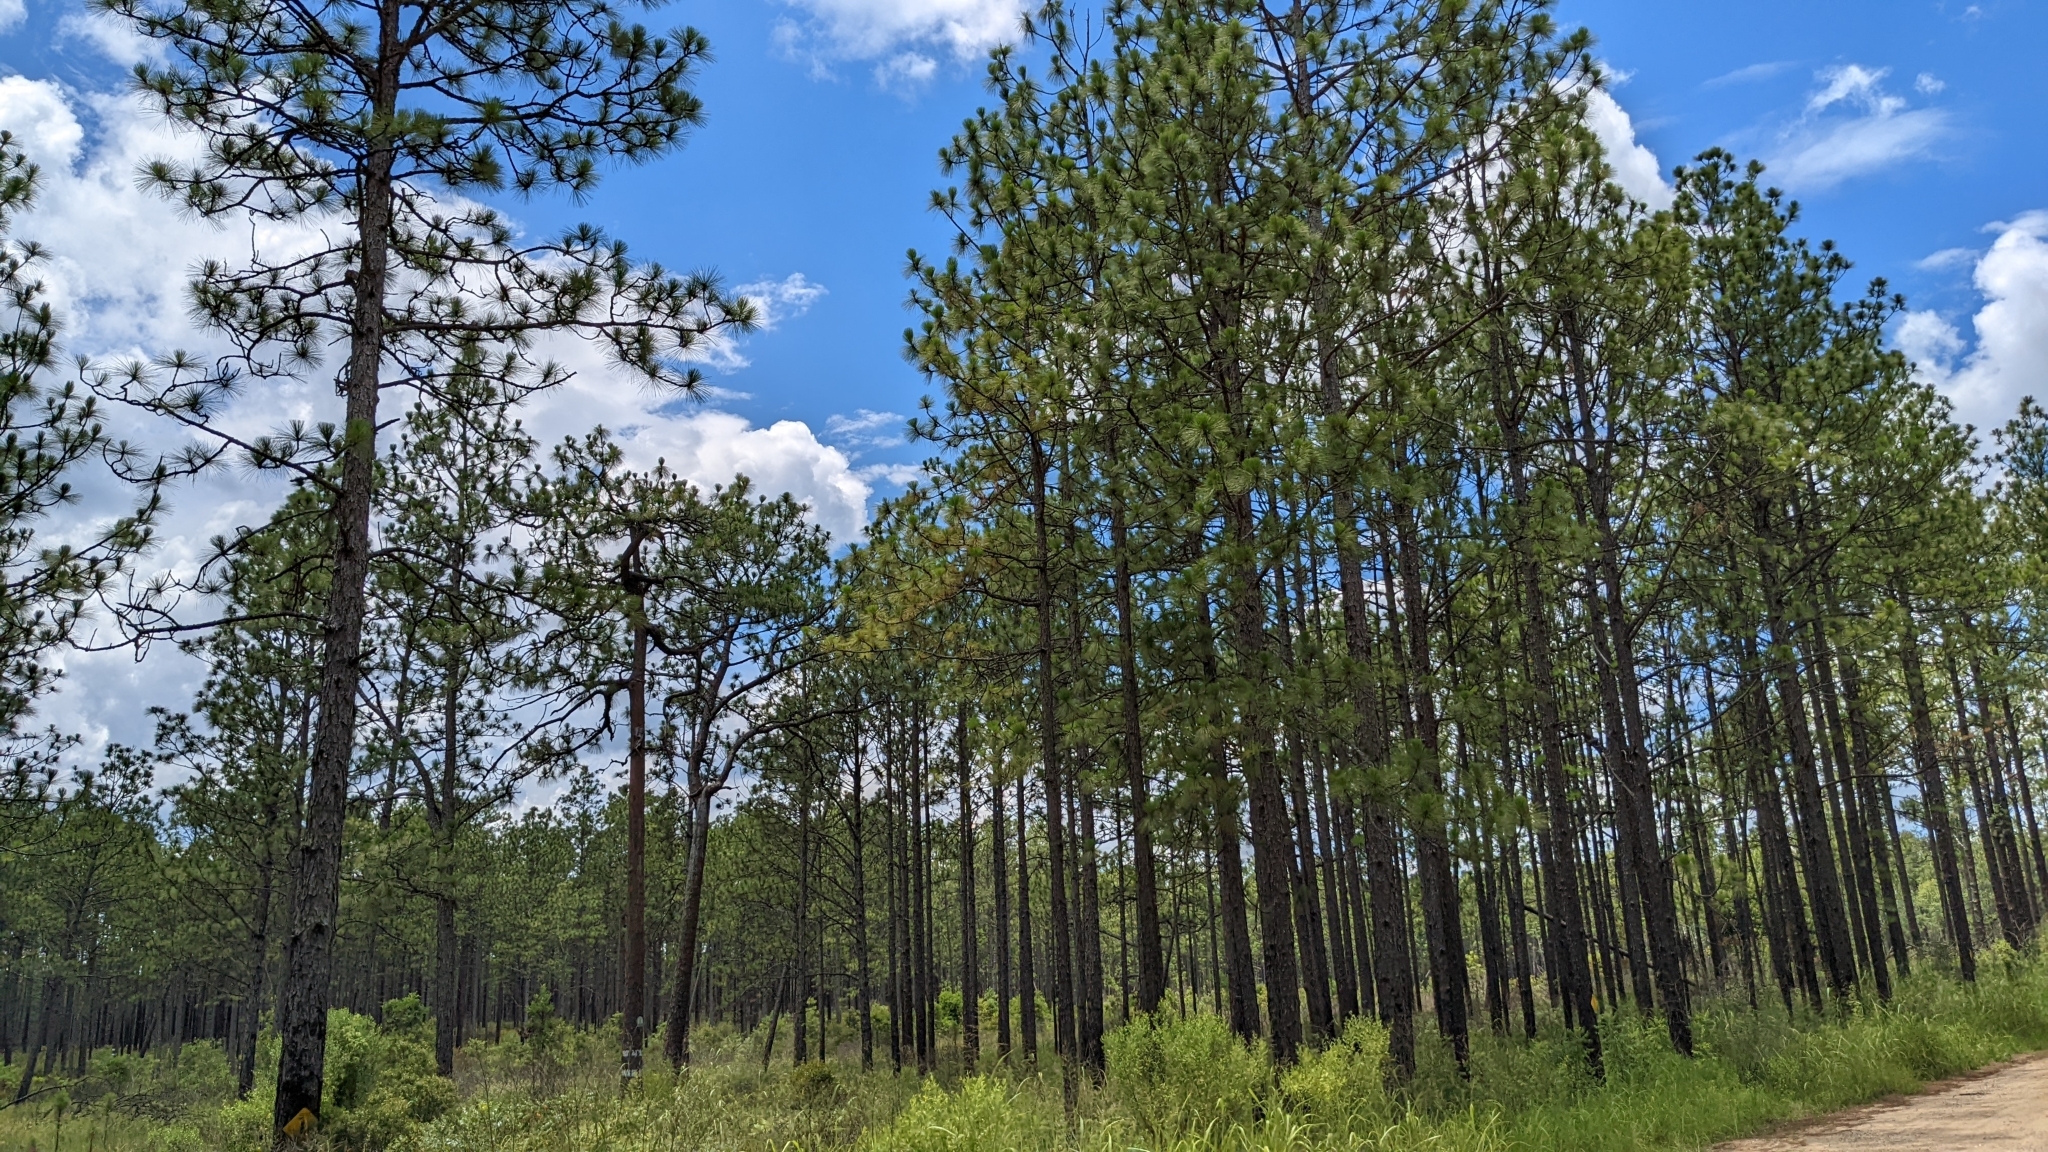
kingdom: Plantae
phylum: Tracheophyta
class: Pinopsida
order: Pinales
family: Pinaceae
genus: Pinus
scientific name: Pinus palustris
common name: Longleaf pine
